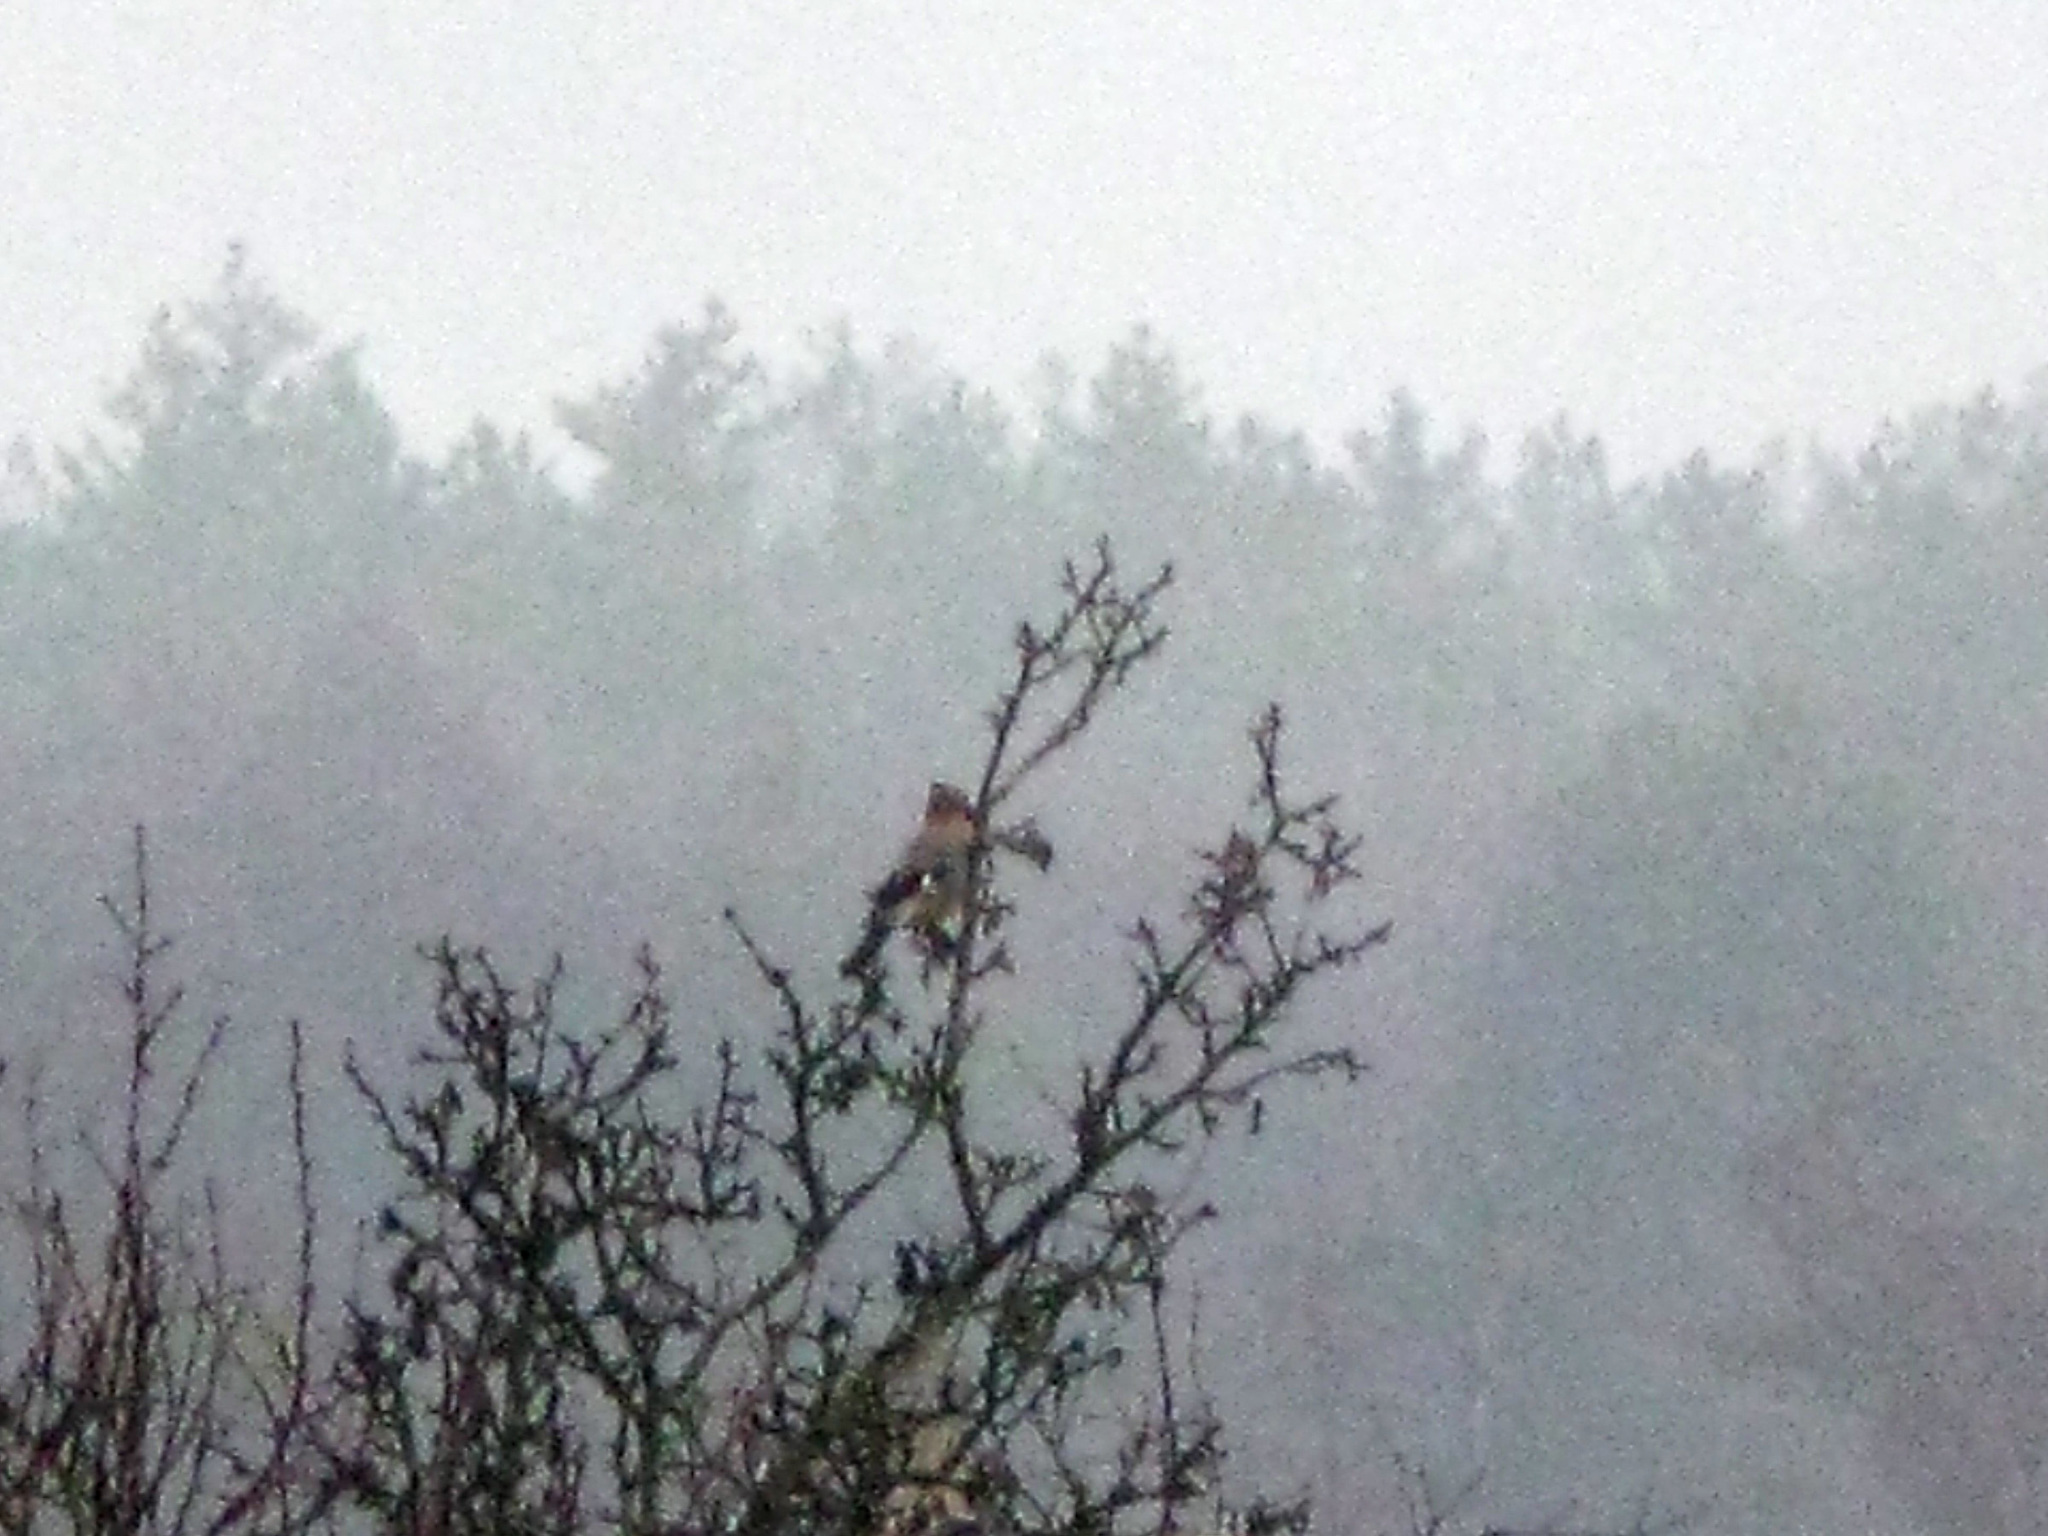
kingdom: Animalia
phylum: Chordata
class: Aves
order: Passeriformes
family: Corvidae
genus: Garrulus
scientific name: Garrulus glandarius
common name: Eurasian jay
